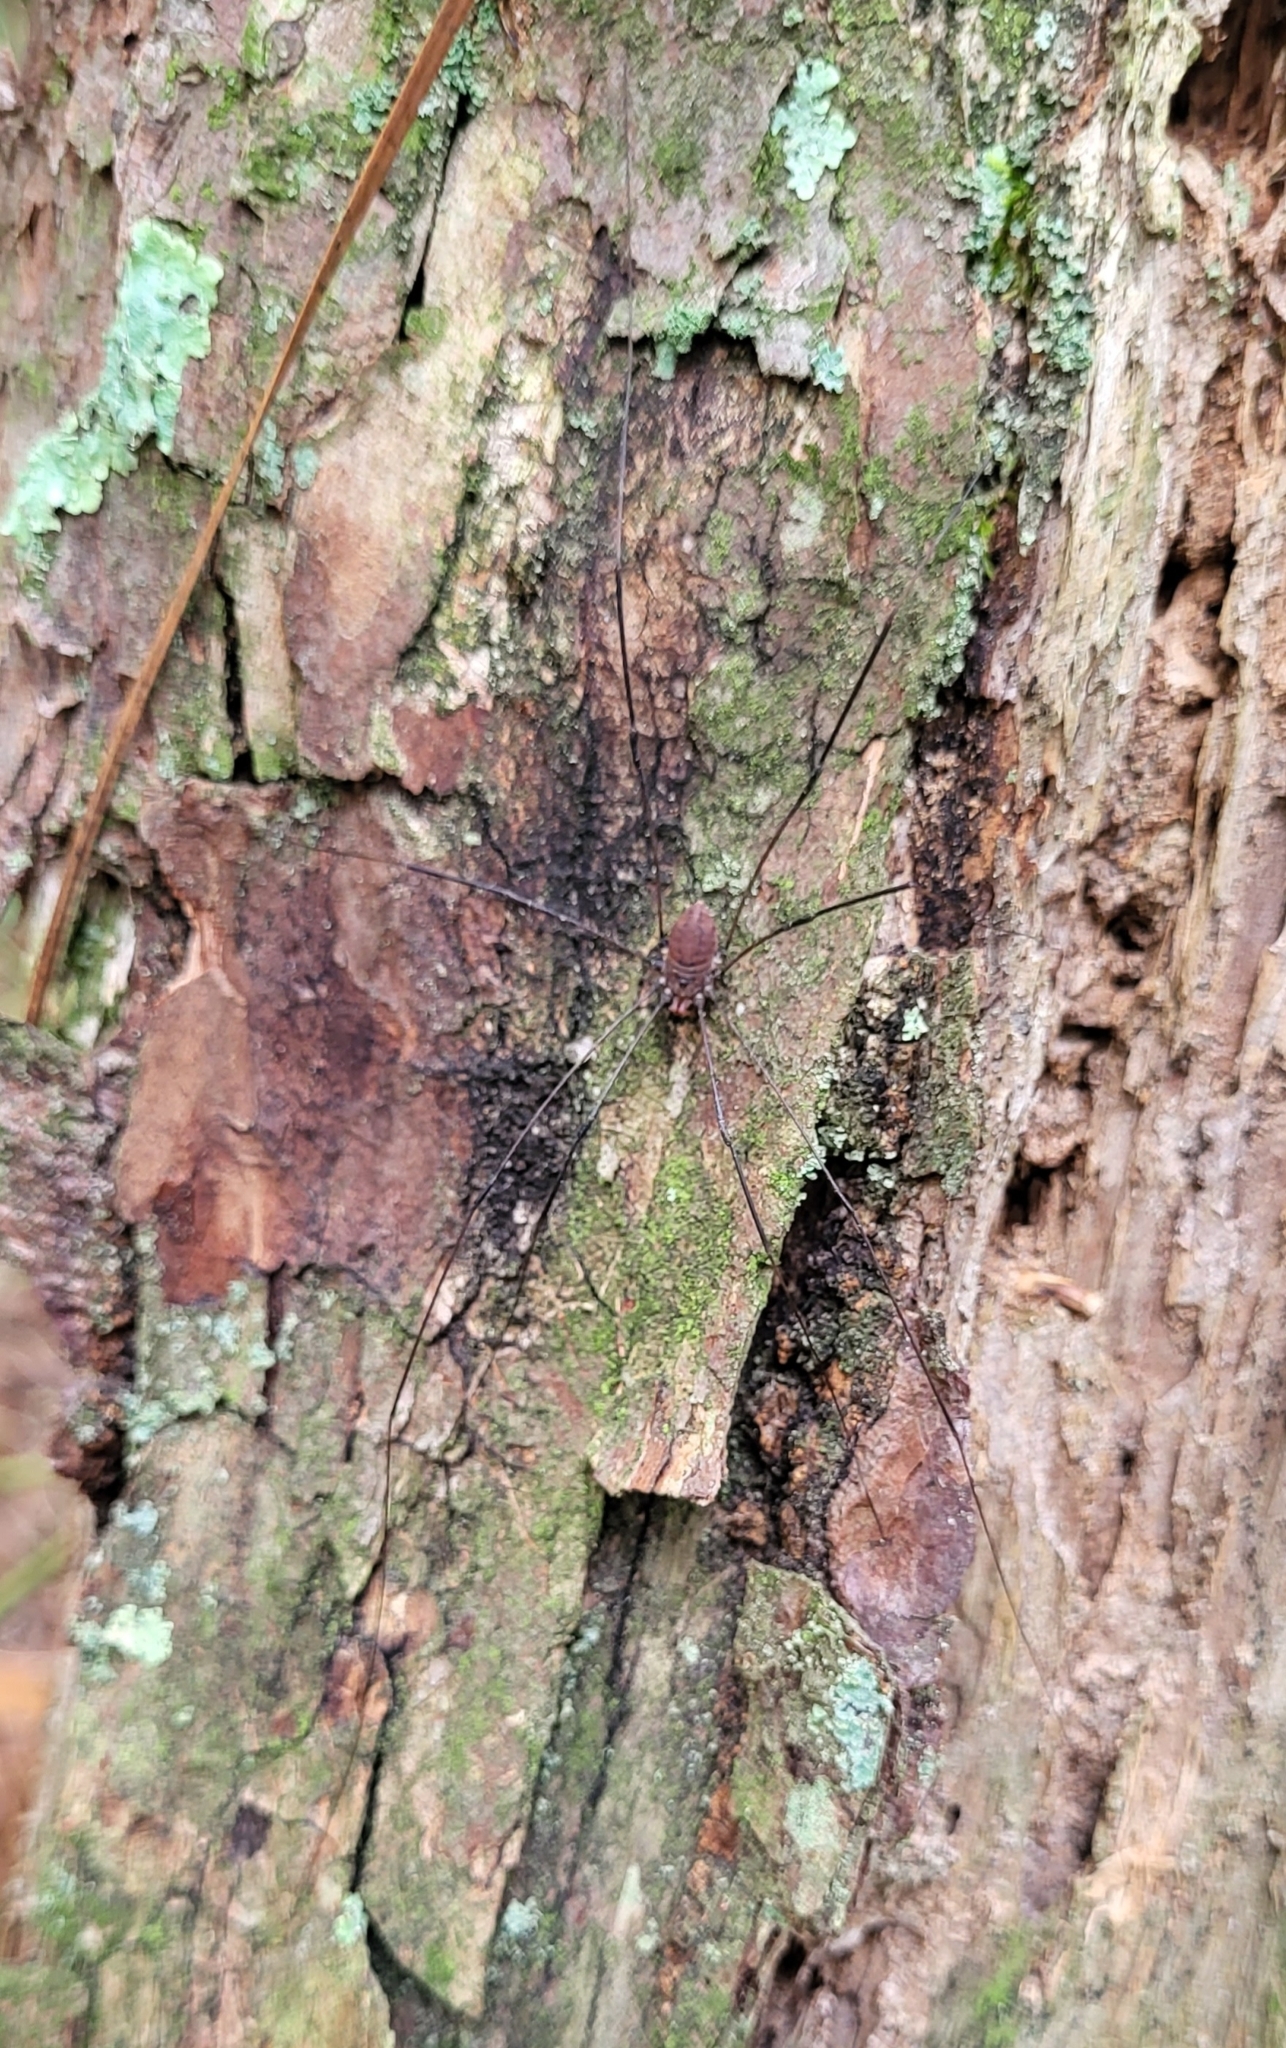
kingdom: Animalia
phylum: Arthropoda
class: Arachnida
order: Opiliones
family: Sclerosomatidae
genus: Leiobunum
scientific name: Leiobunum vittatum
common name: Eastern harvestman
